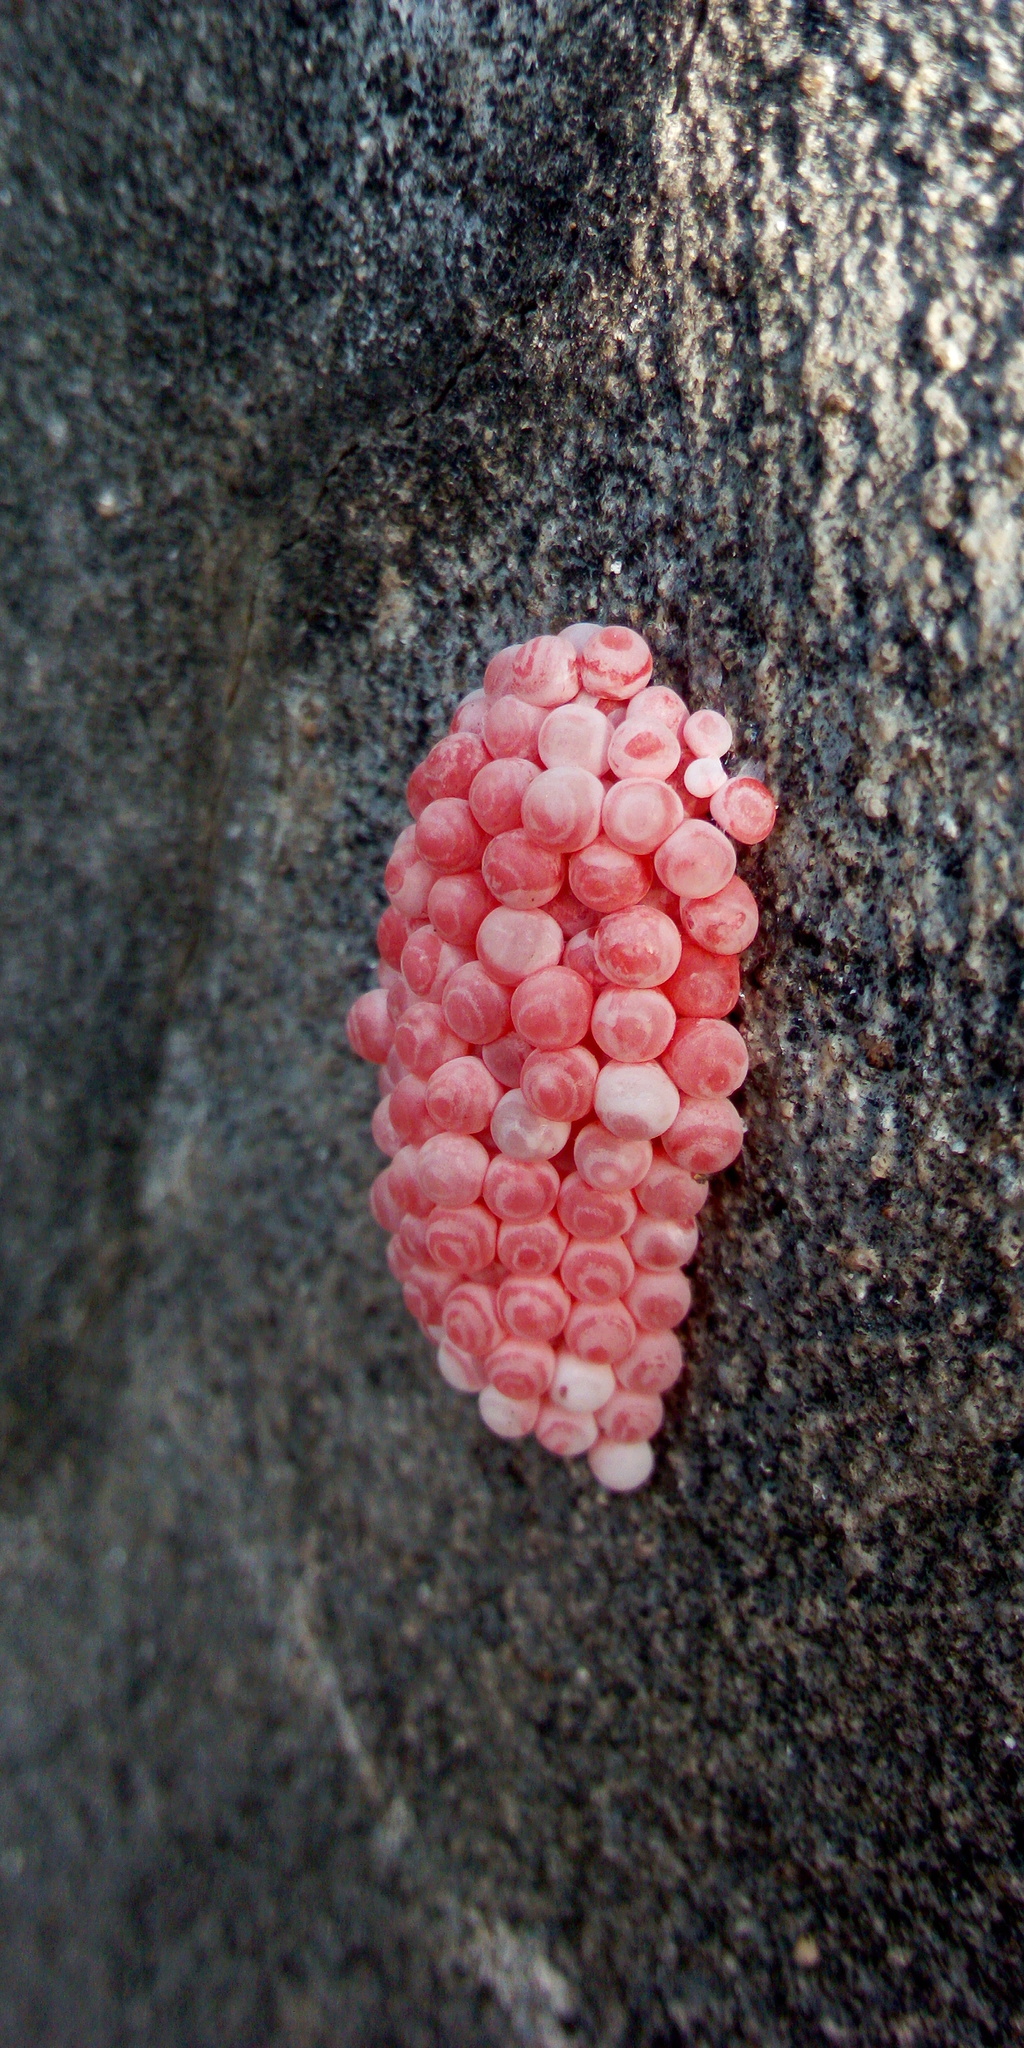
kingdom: Animalia
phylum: Mollusca
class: Gastropoda
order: Architaenioglossa
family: Ampullariidae
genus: Pomacea
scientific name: Pomacea canaliculata
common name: Channeled applesnail
